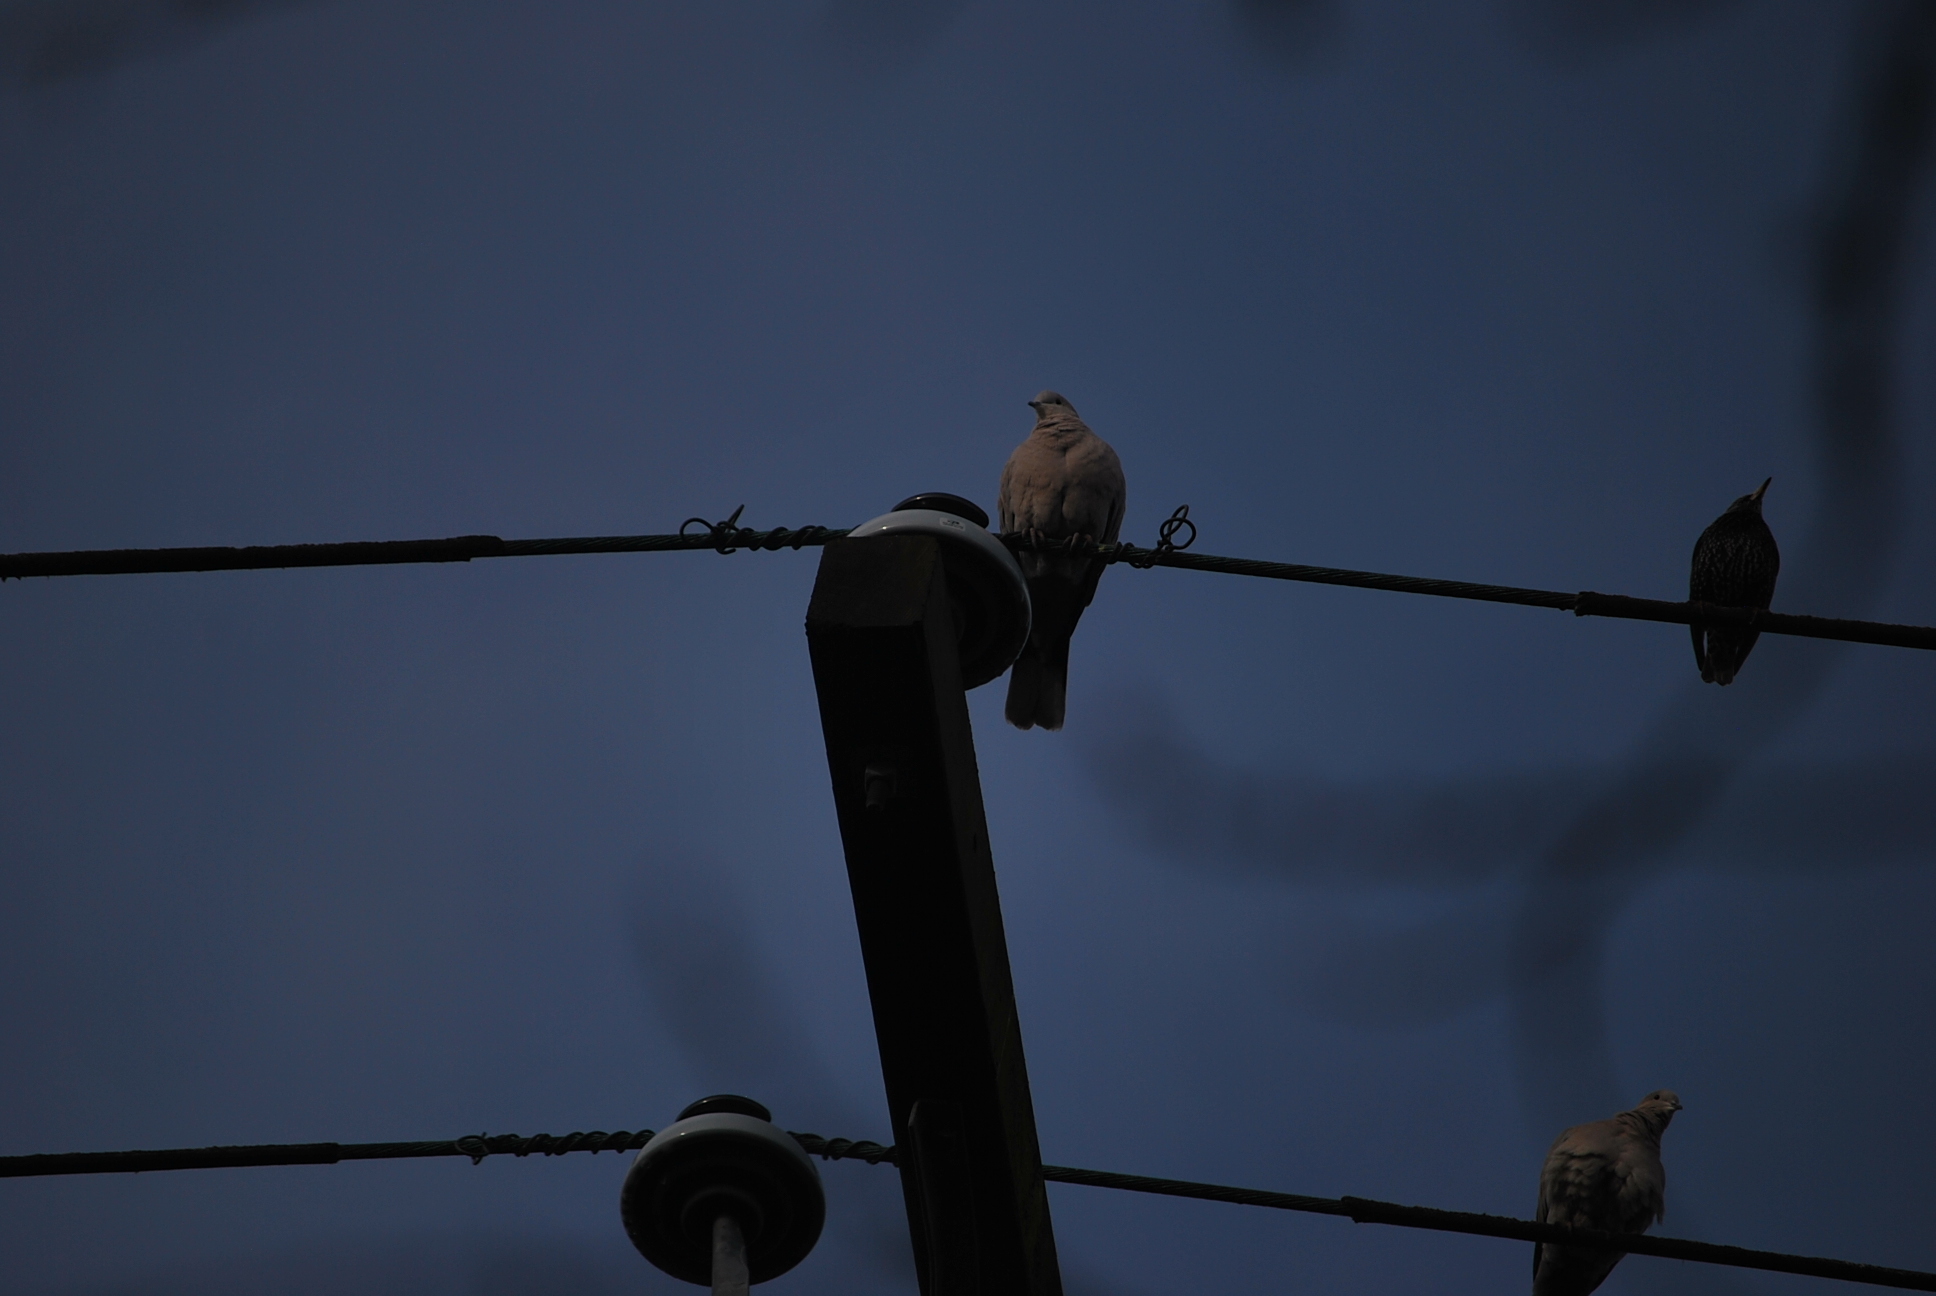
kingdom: Animalia
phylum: Chordata
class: Aves
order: Columbiformes
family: Columbidae
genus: Streptopelia
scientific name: Streptopelia decaocto
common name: Eurasian collared dove
